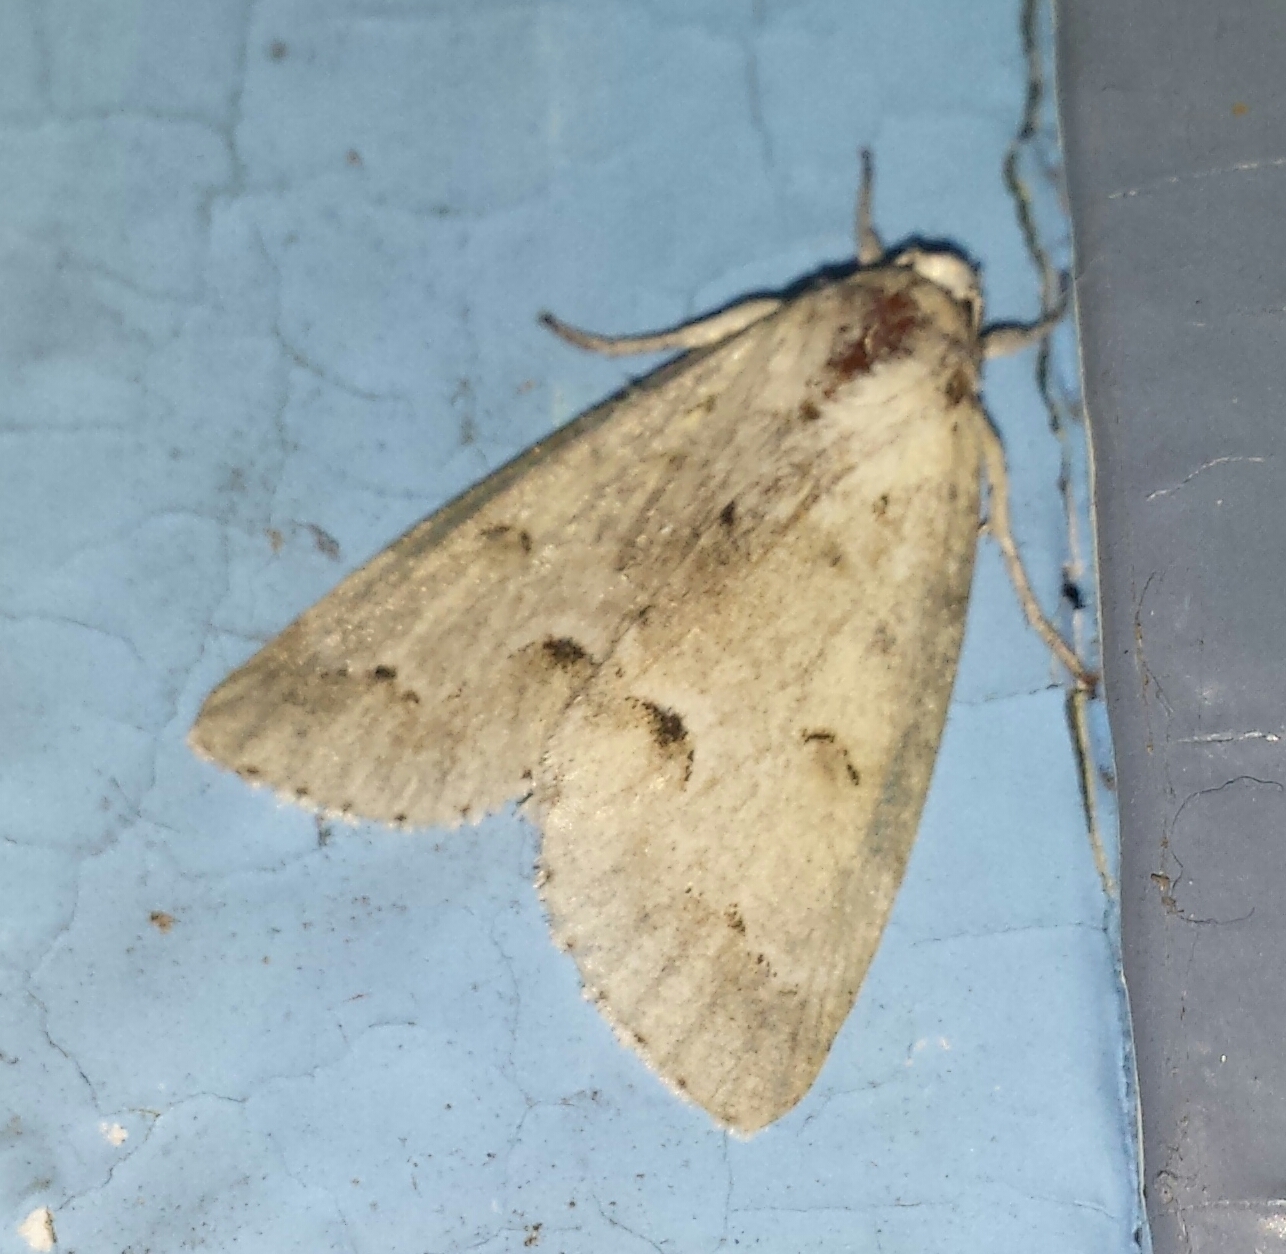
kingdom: Animalia
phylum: Arthropoda
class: Insecta
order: Lepidoptera
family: Noctuidae
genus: Acronicta
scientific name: Acronicta innotata
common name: Unmarked dagger
